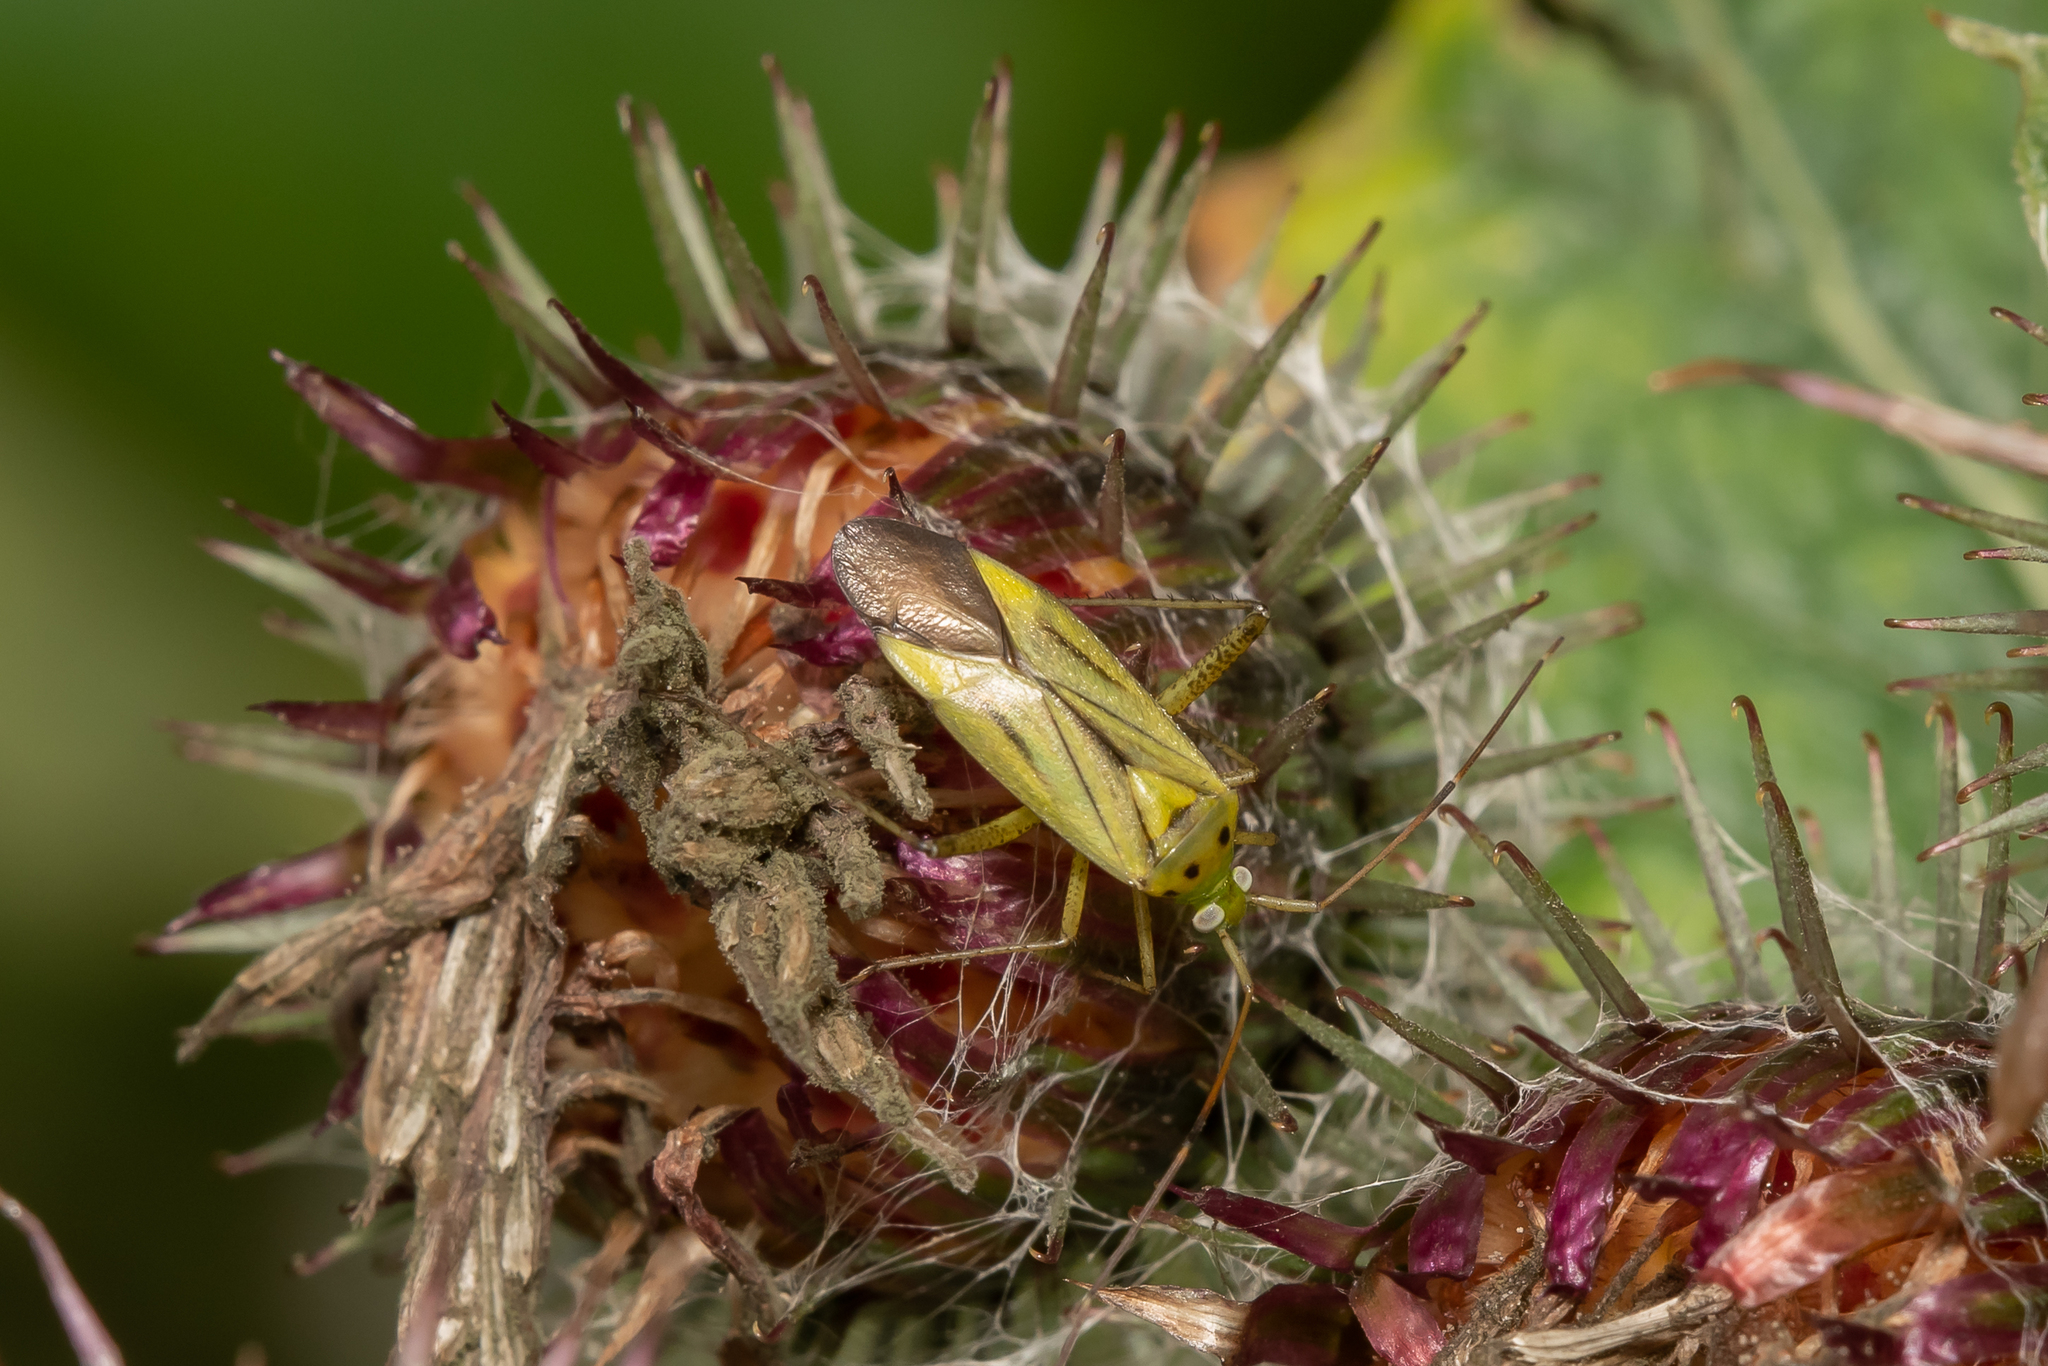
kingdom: Animalia
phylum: Arthropoda
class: Insecta
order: Hemiptera
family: Miridae
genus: Adelphocoris
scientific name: Adelphocoris quadripunctatus
